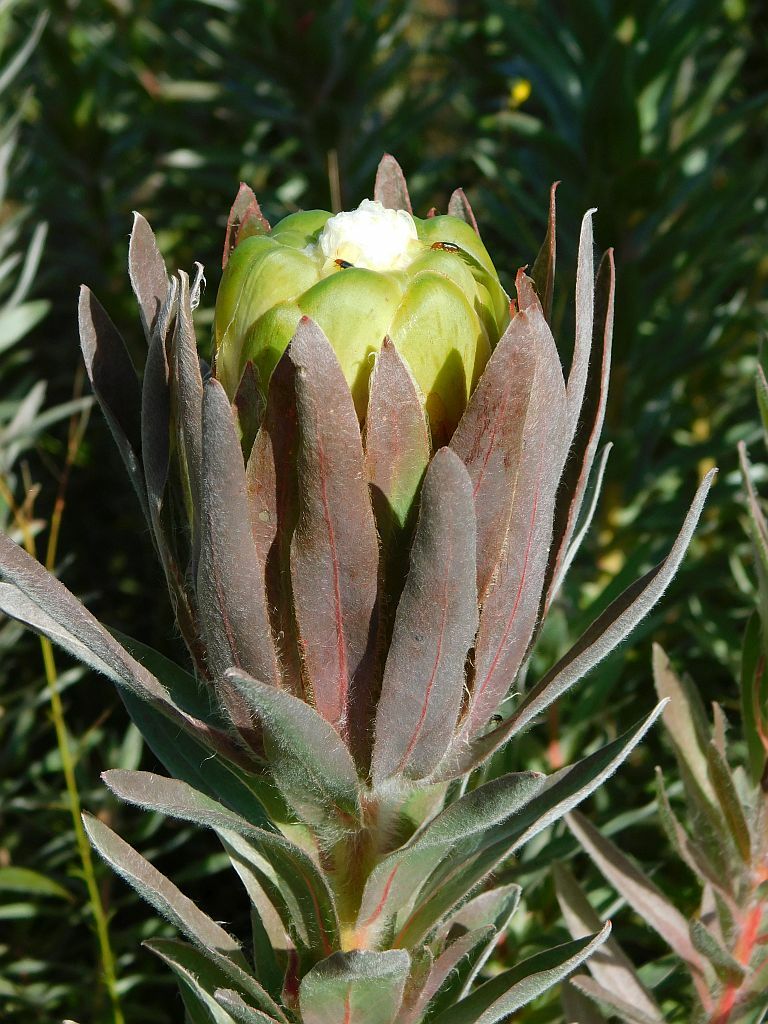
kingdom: Plantae
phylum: Tracheophyta
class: Magnoliopsida
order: Proteales
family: Proteaceae
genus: Protea
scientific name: Protea coronata
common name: Green sugarbush
